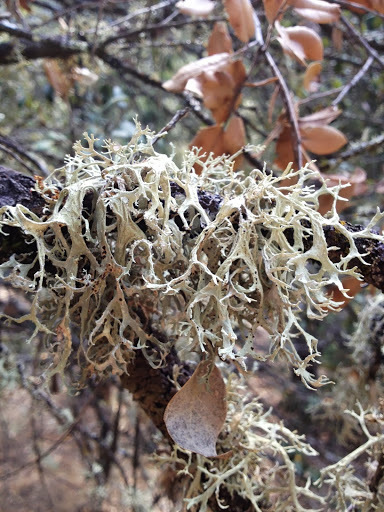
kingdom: Fungi
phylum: Ascomycota
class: Lecanoromycetes
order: Lecanorales
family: Parmeliaceae
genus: Evernia
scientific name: Evernia prunastri
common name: Oak moss
